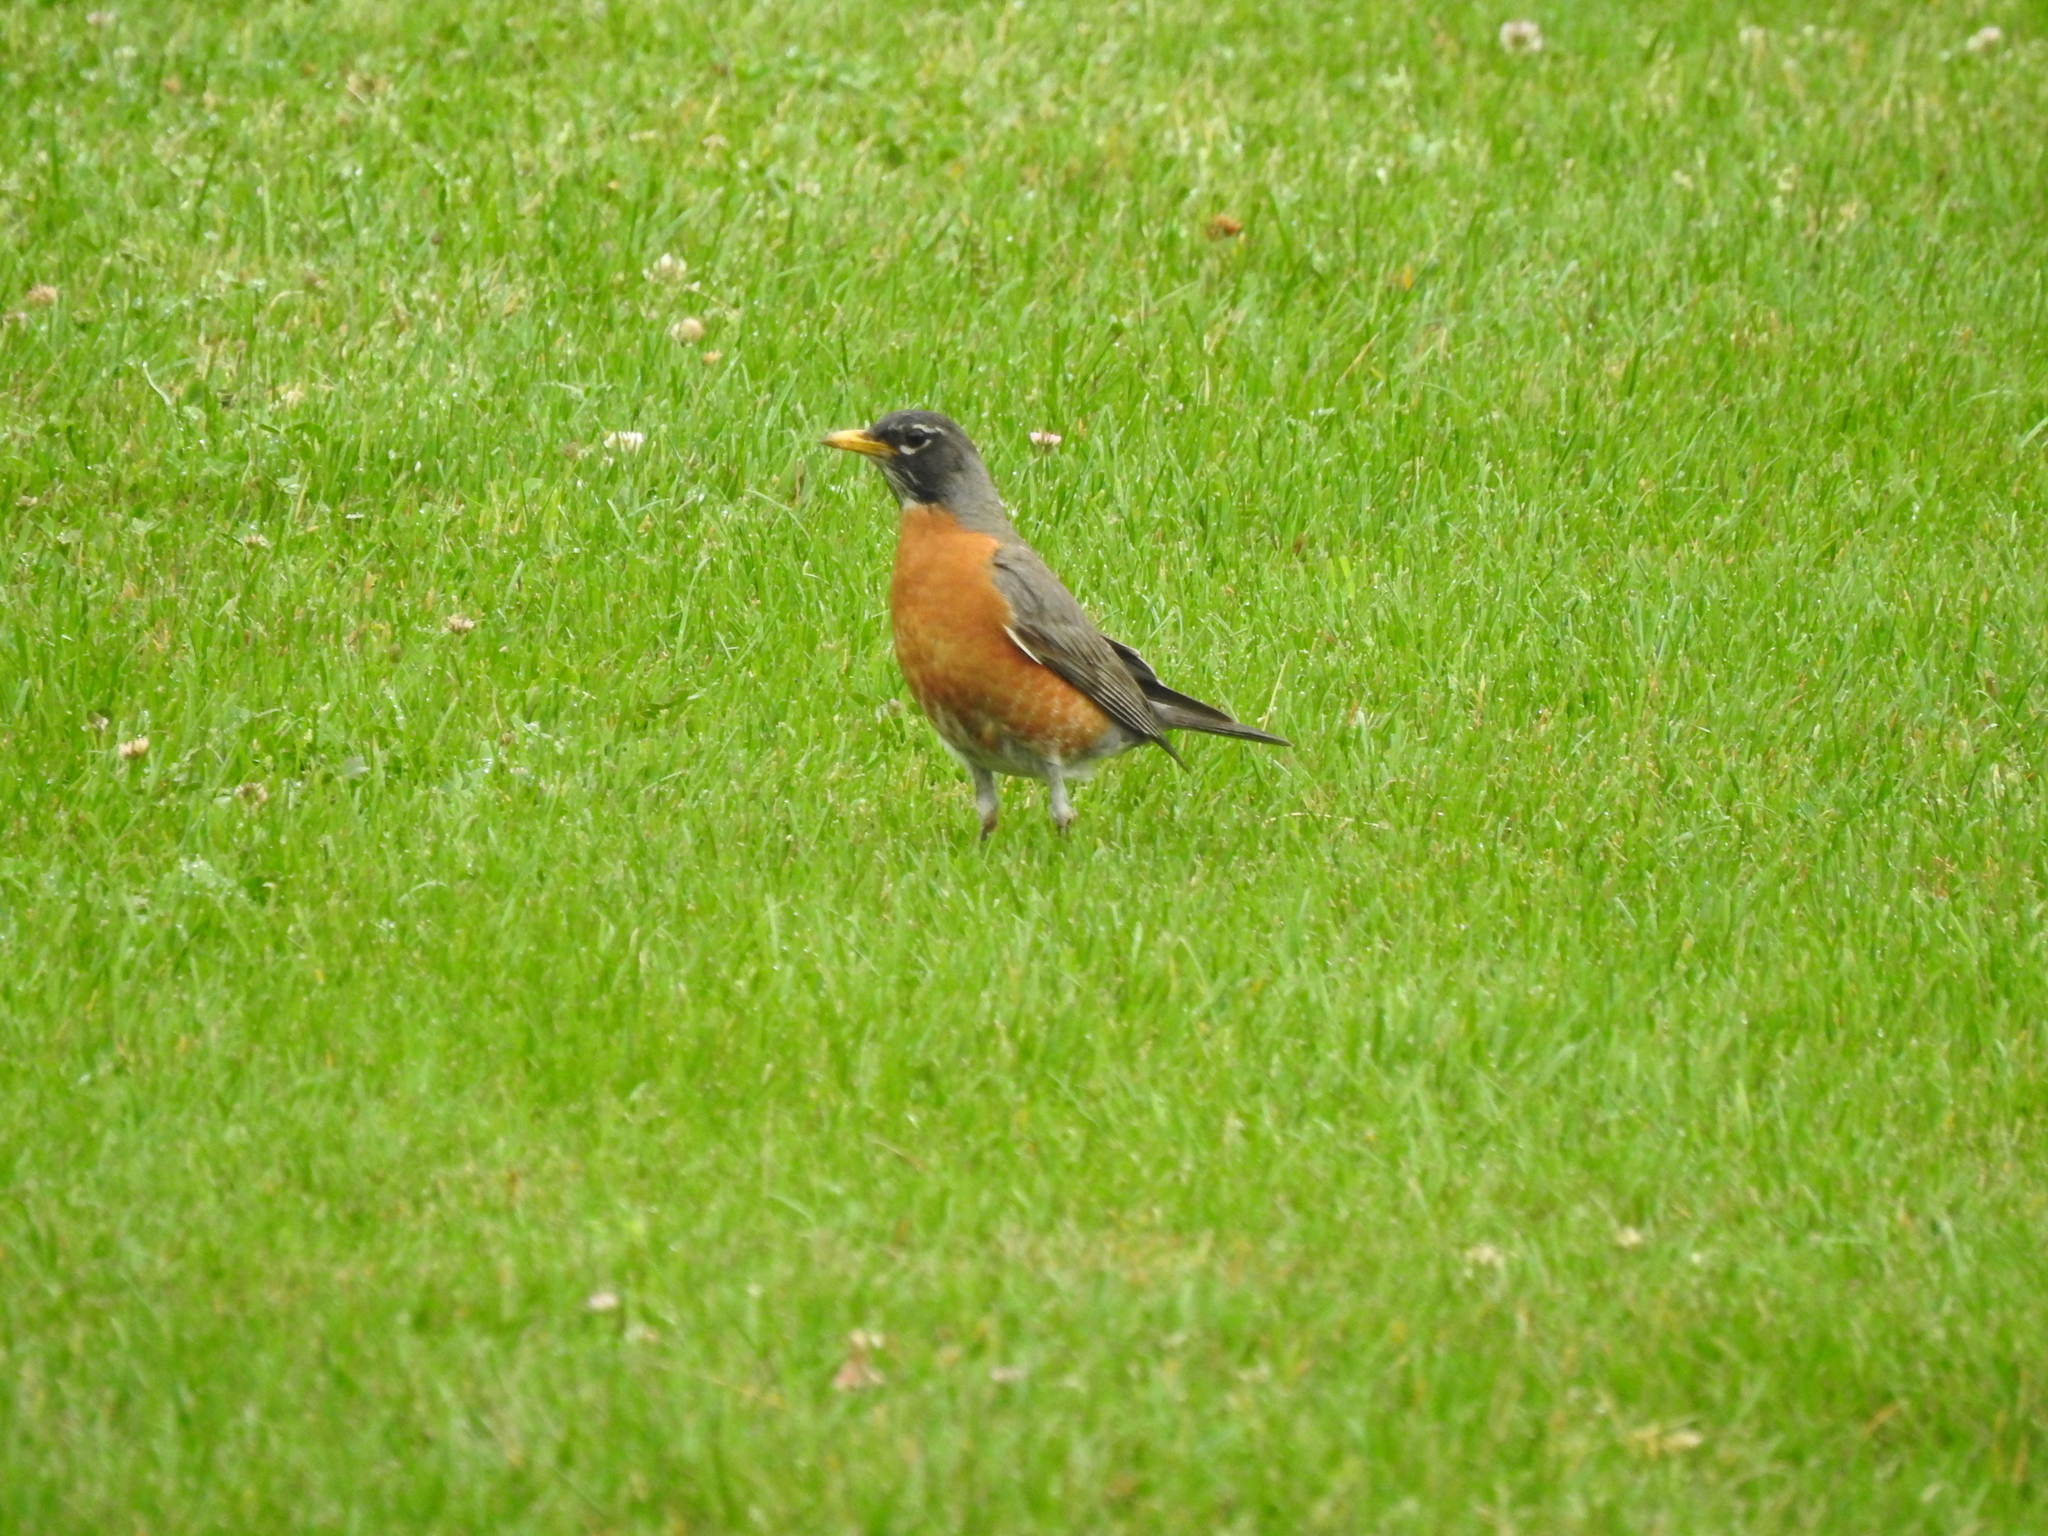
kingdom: Animalia
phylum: Chordata
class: Aves
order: Passeriformes
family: Turdidae
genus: Turdus
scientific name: Turdus migratorius
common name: American robin
